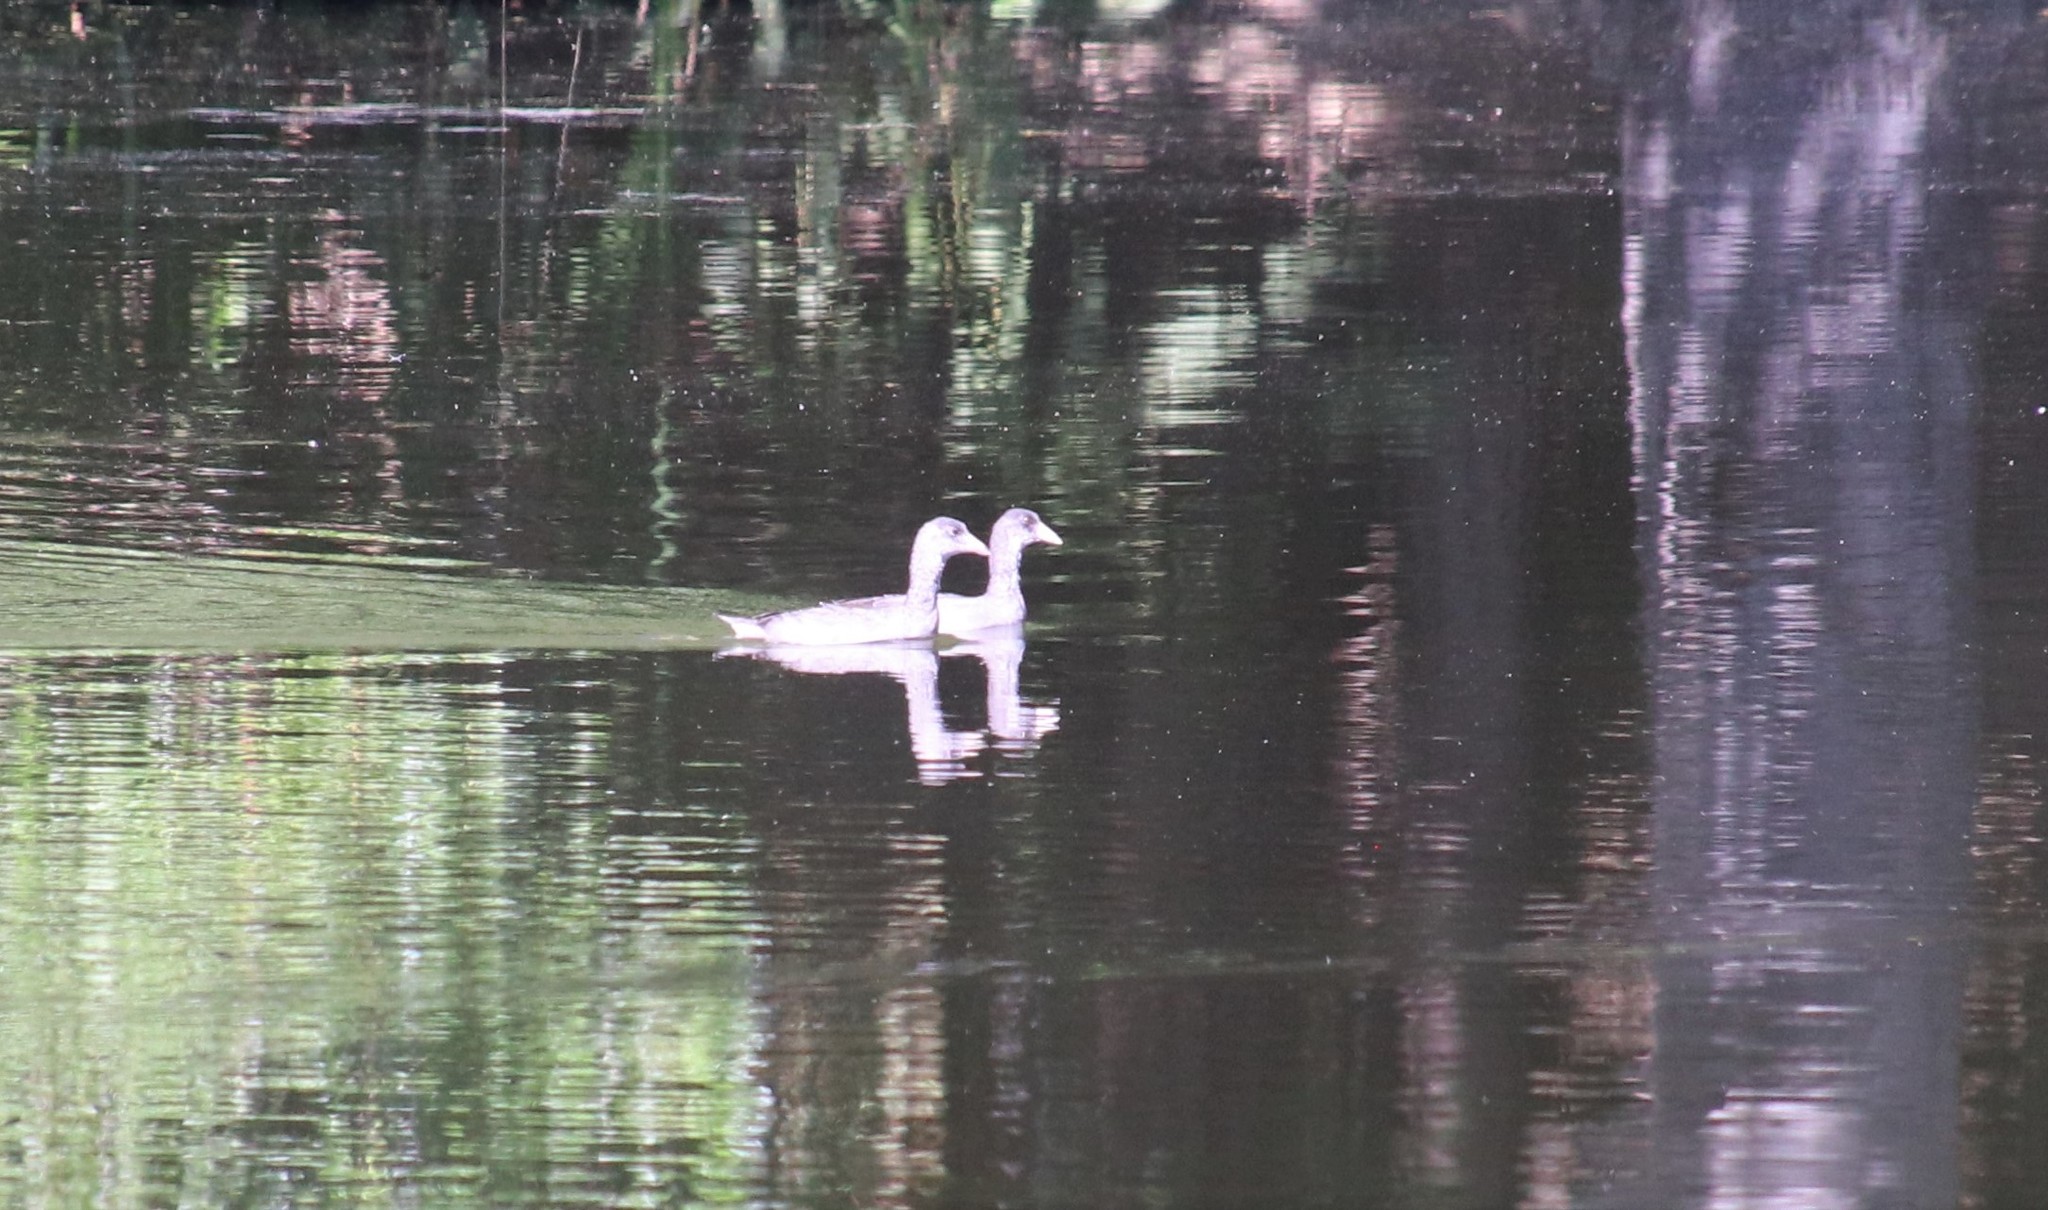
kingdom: Animalia
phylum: Chordata
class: Aves
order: Gruiformes
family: Rallidae
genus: Fulica
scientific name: Fulica americana
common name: American coot
